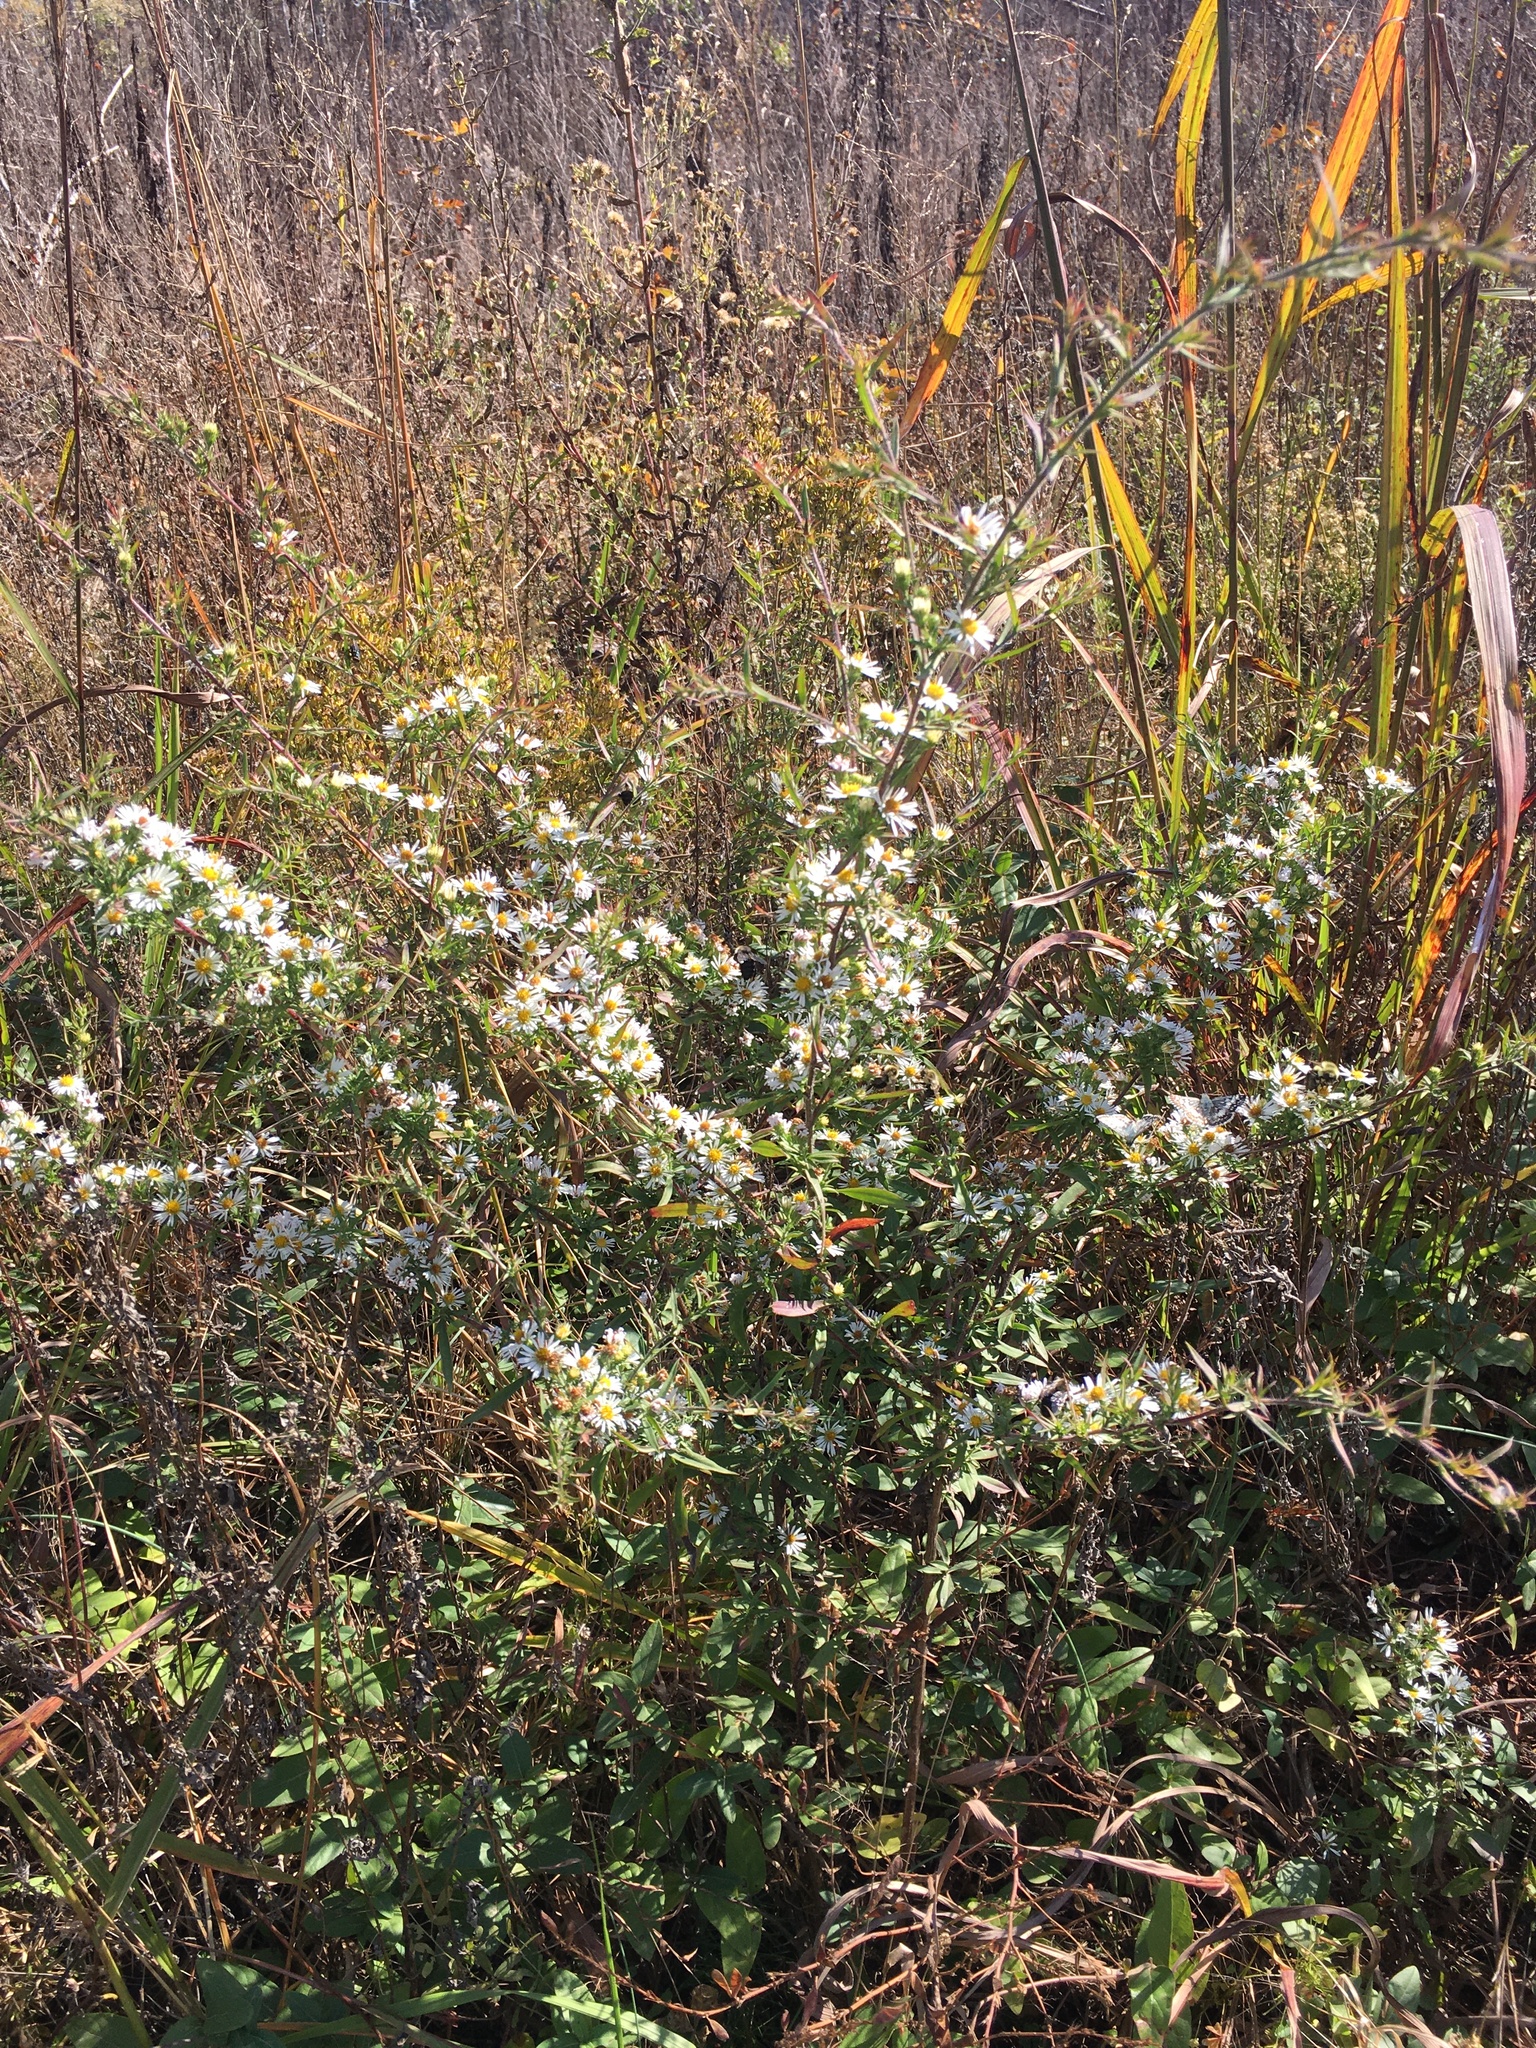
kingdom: Plantae
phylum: Tracheophyta
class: Magnoliopsida
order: Asterales
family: Asteraceae
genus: Symphyotrichum
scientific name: Symphyotrichum pilosum
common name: Awl aster
